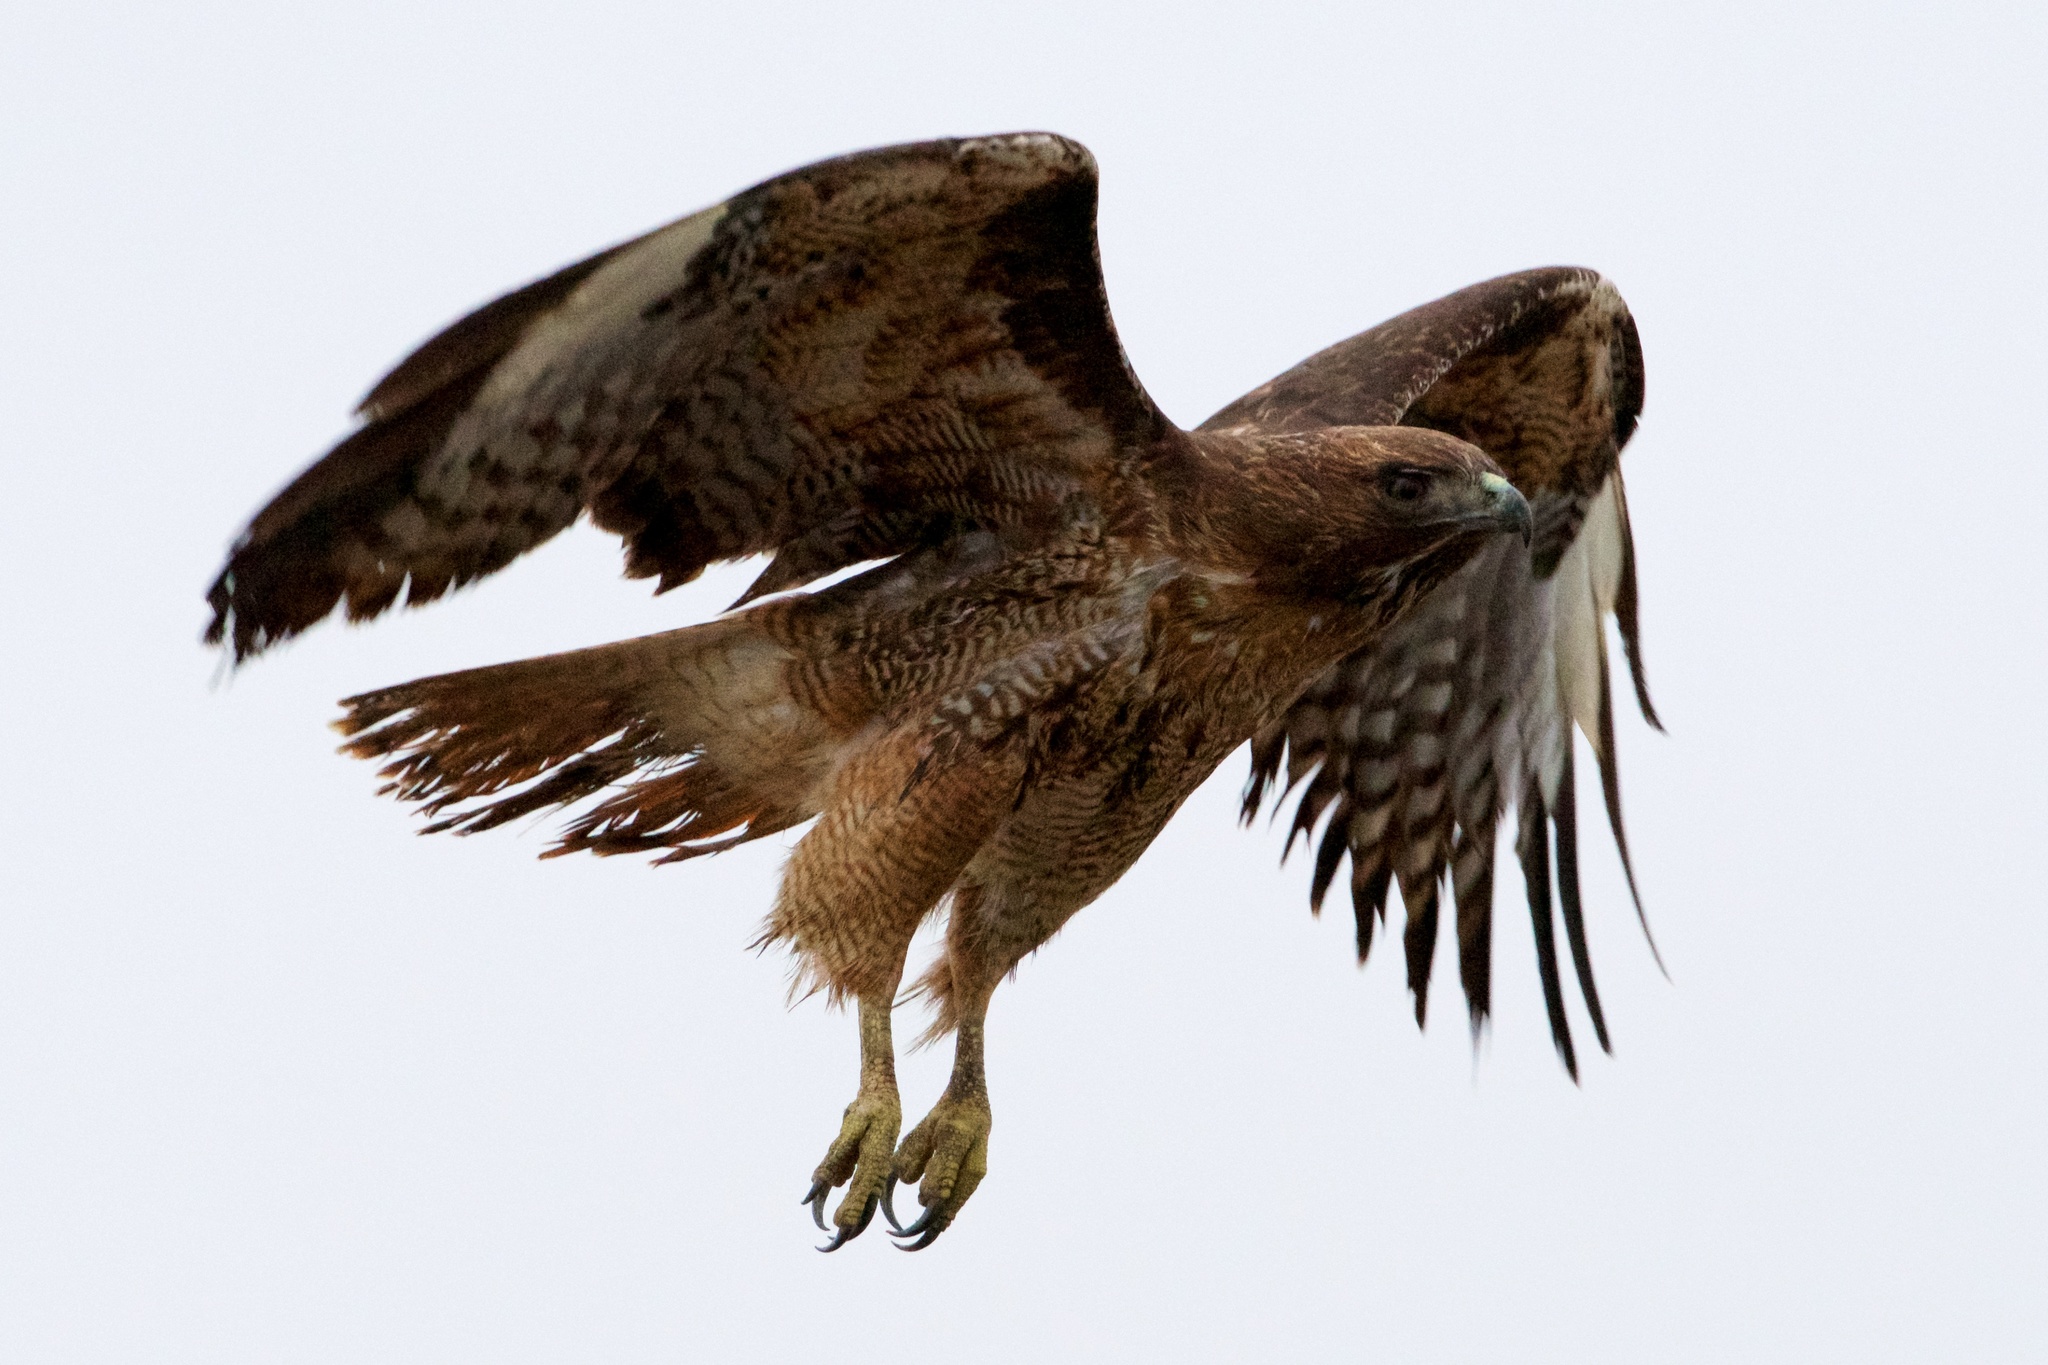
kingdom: Animalia
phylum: Chordata
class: Aves
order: Accipitriformes
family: Accipitridae
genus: Buteo
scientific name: Buteo jamaicensis
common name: Red-tailed hawk
